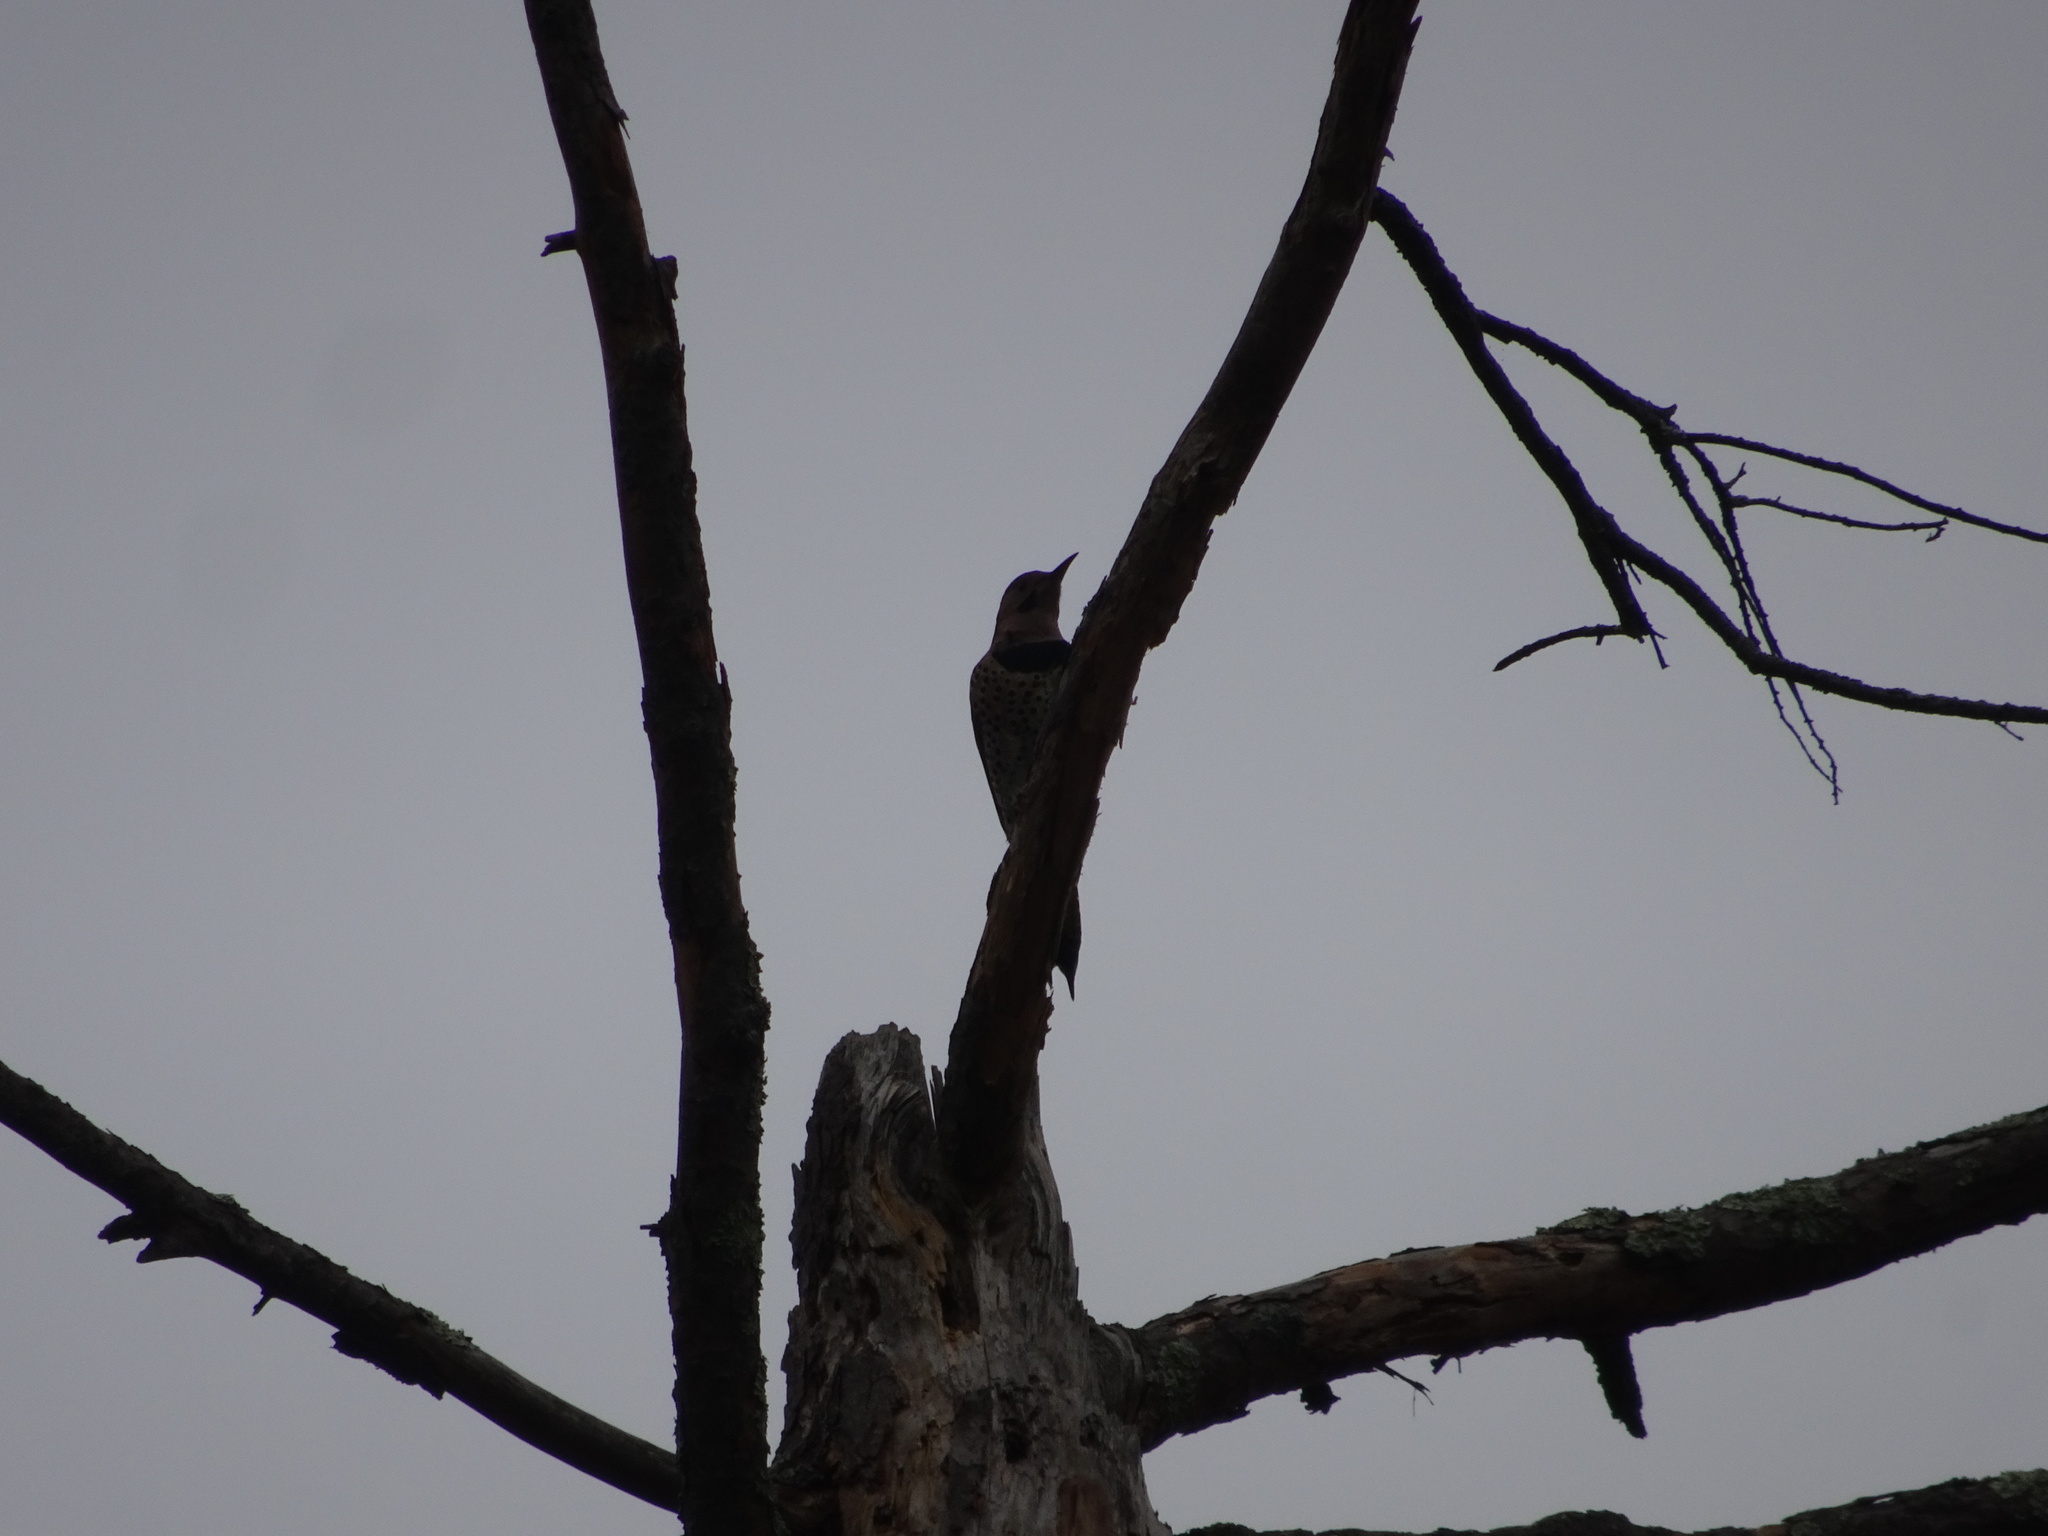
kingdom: Animalia
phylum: Chordata
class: Aves
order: Piciformes
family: Picidae
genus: Colaptes
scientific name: Colaptes auratus
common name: Northern flicker
